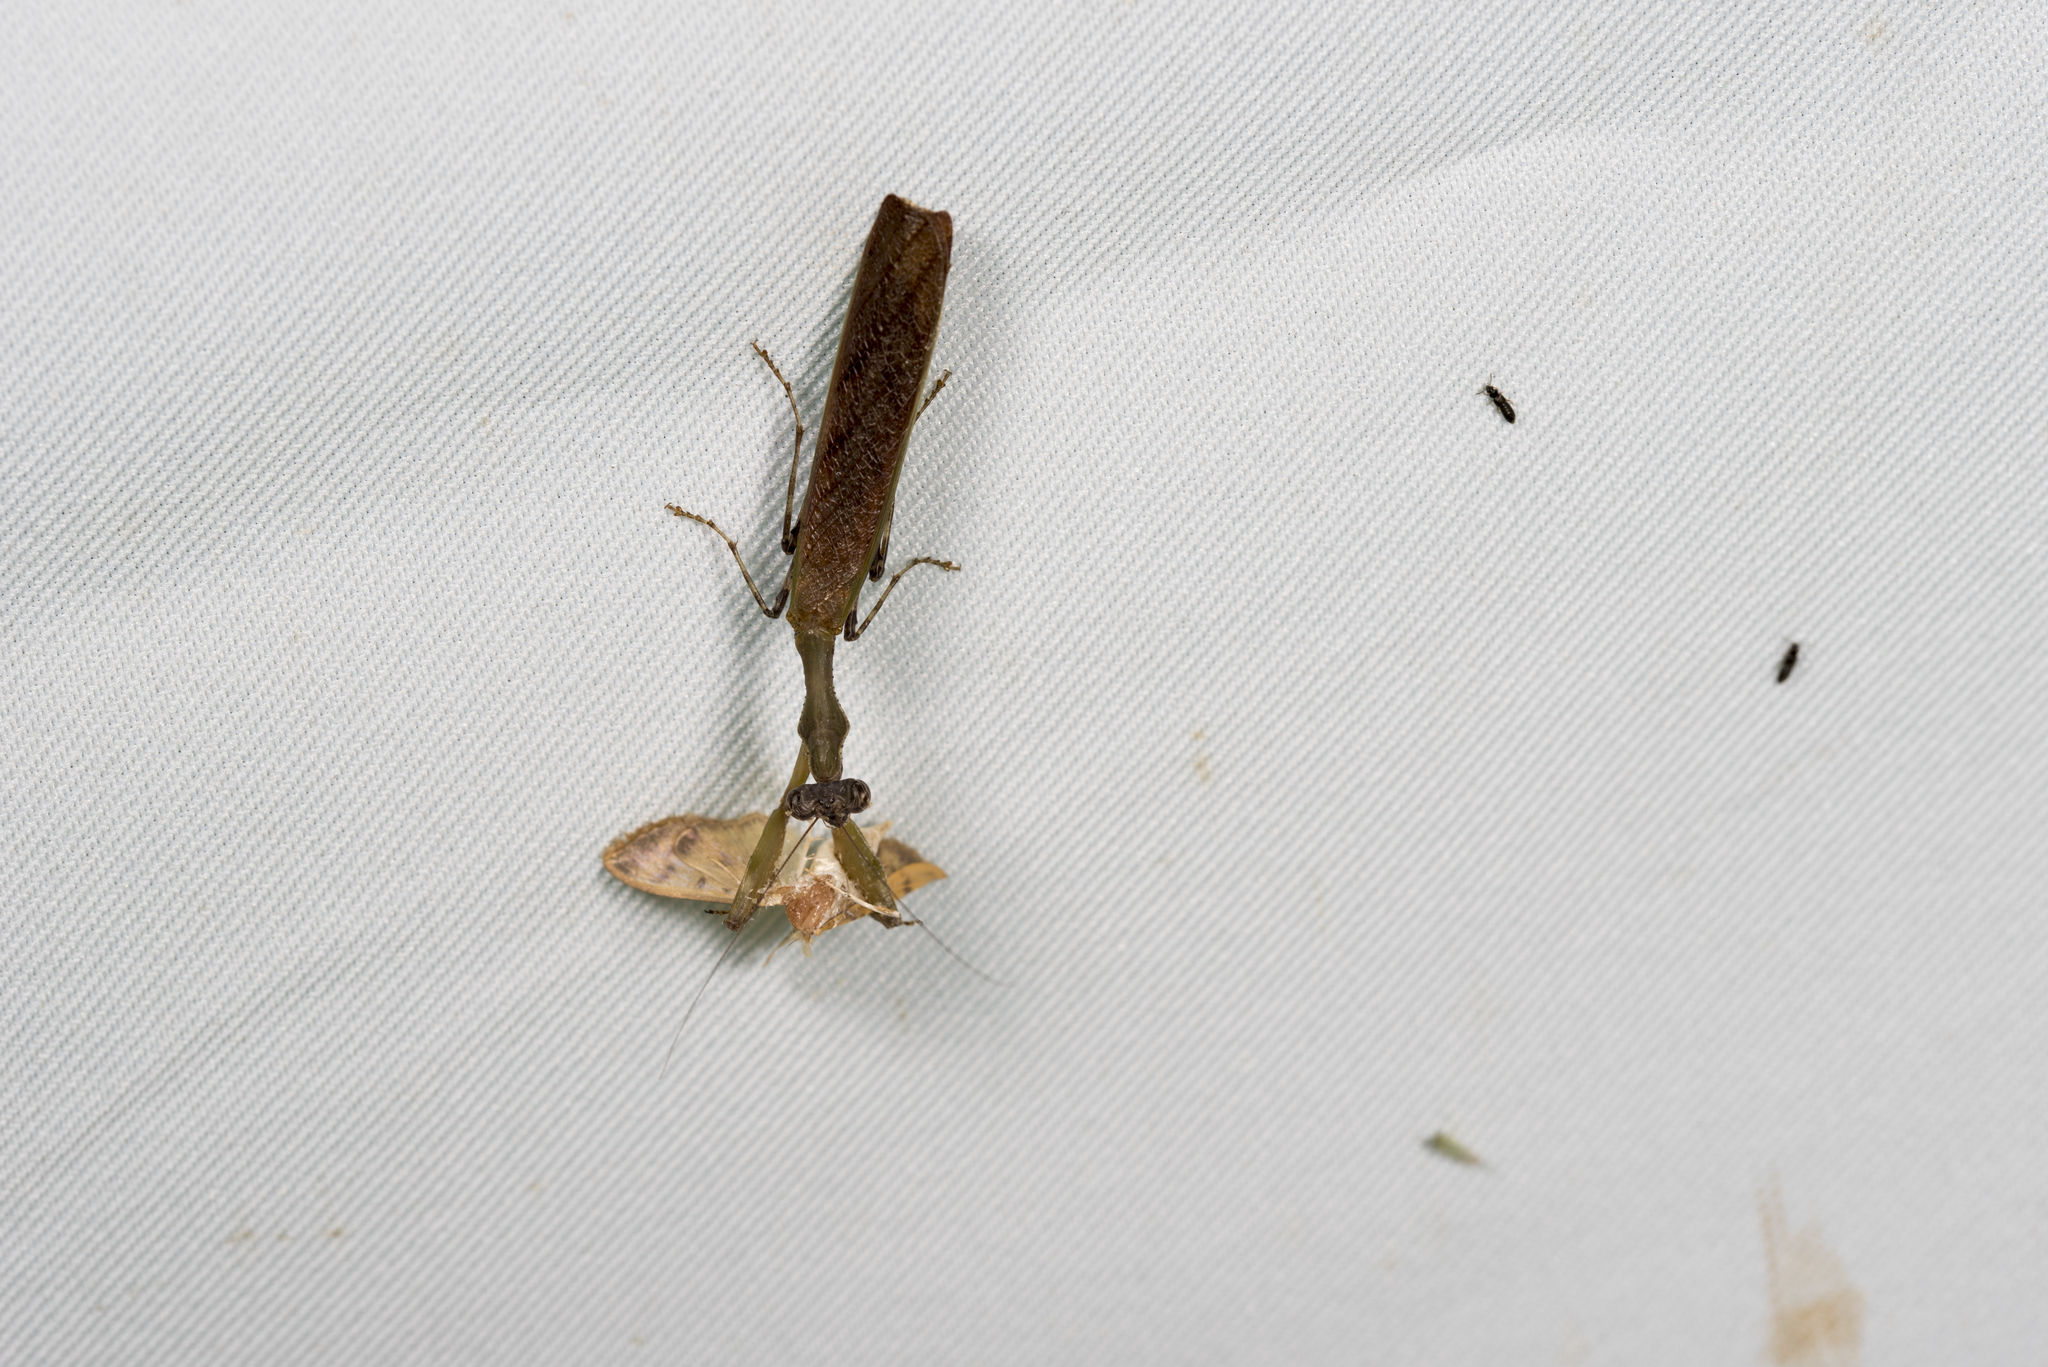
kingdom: Animalia
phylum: Arthropoda
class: Insecta
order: Mantodea
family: Hymenopodidae
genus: Acromantis
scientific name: Acromantis japonica
